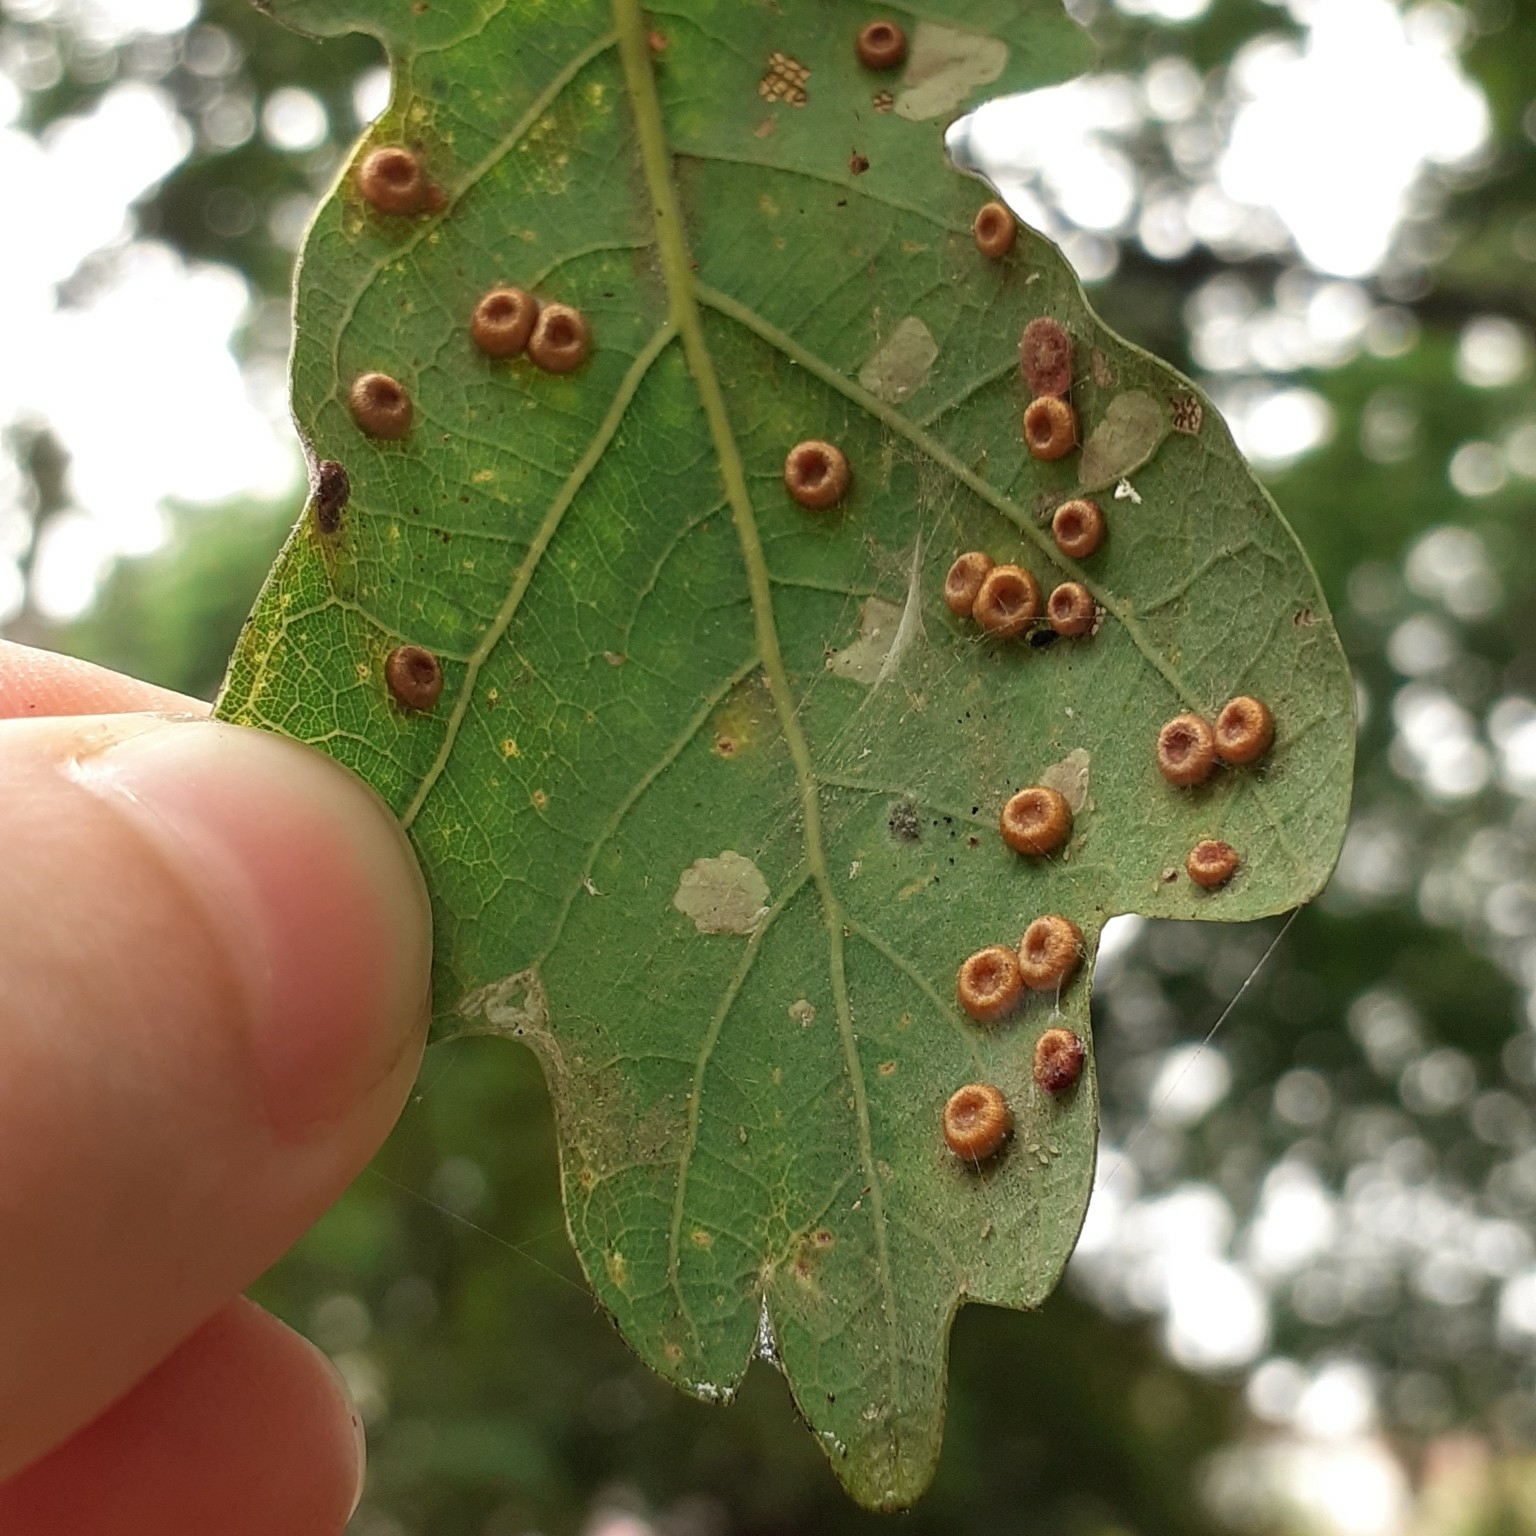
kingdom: Animalia
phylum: Arthropoda
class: Insecta
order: Hymenoptera
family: Cynipidae
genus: Neuroterus
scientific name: Neuroterus numismalis
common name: Silk-button spangle gall
